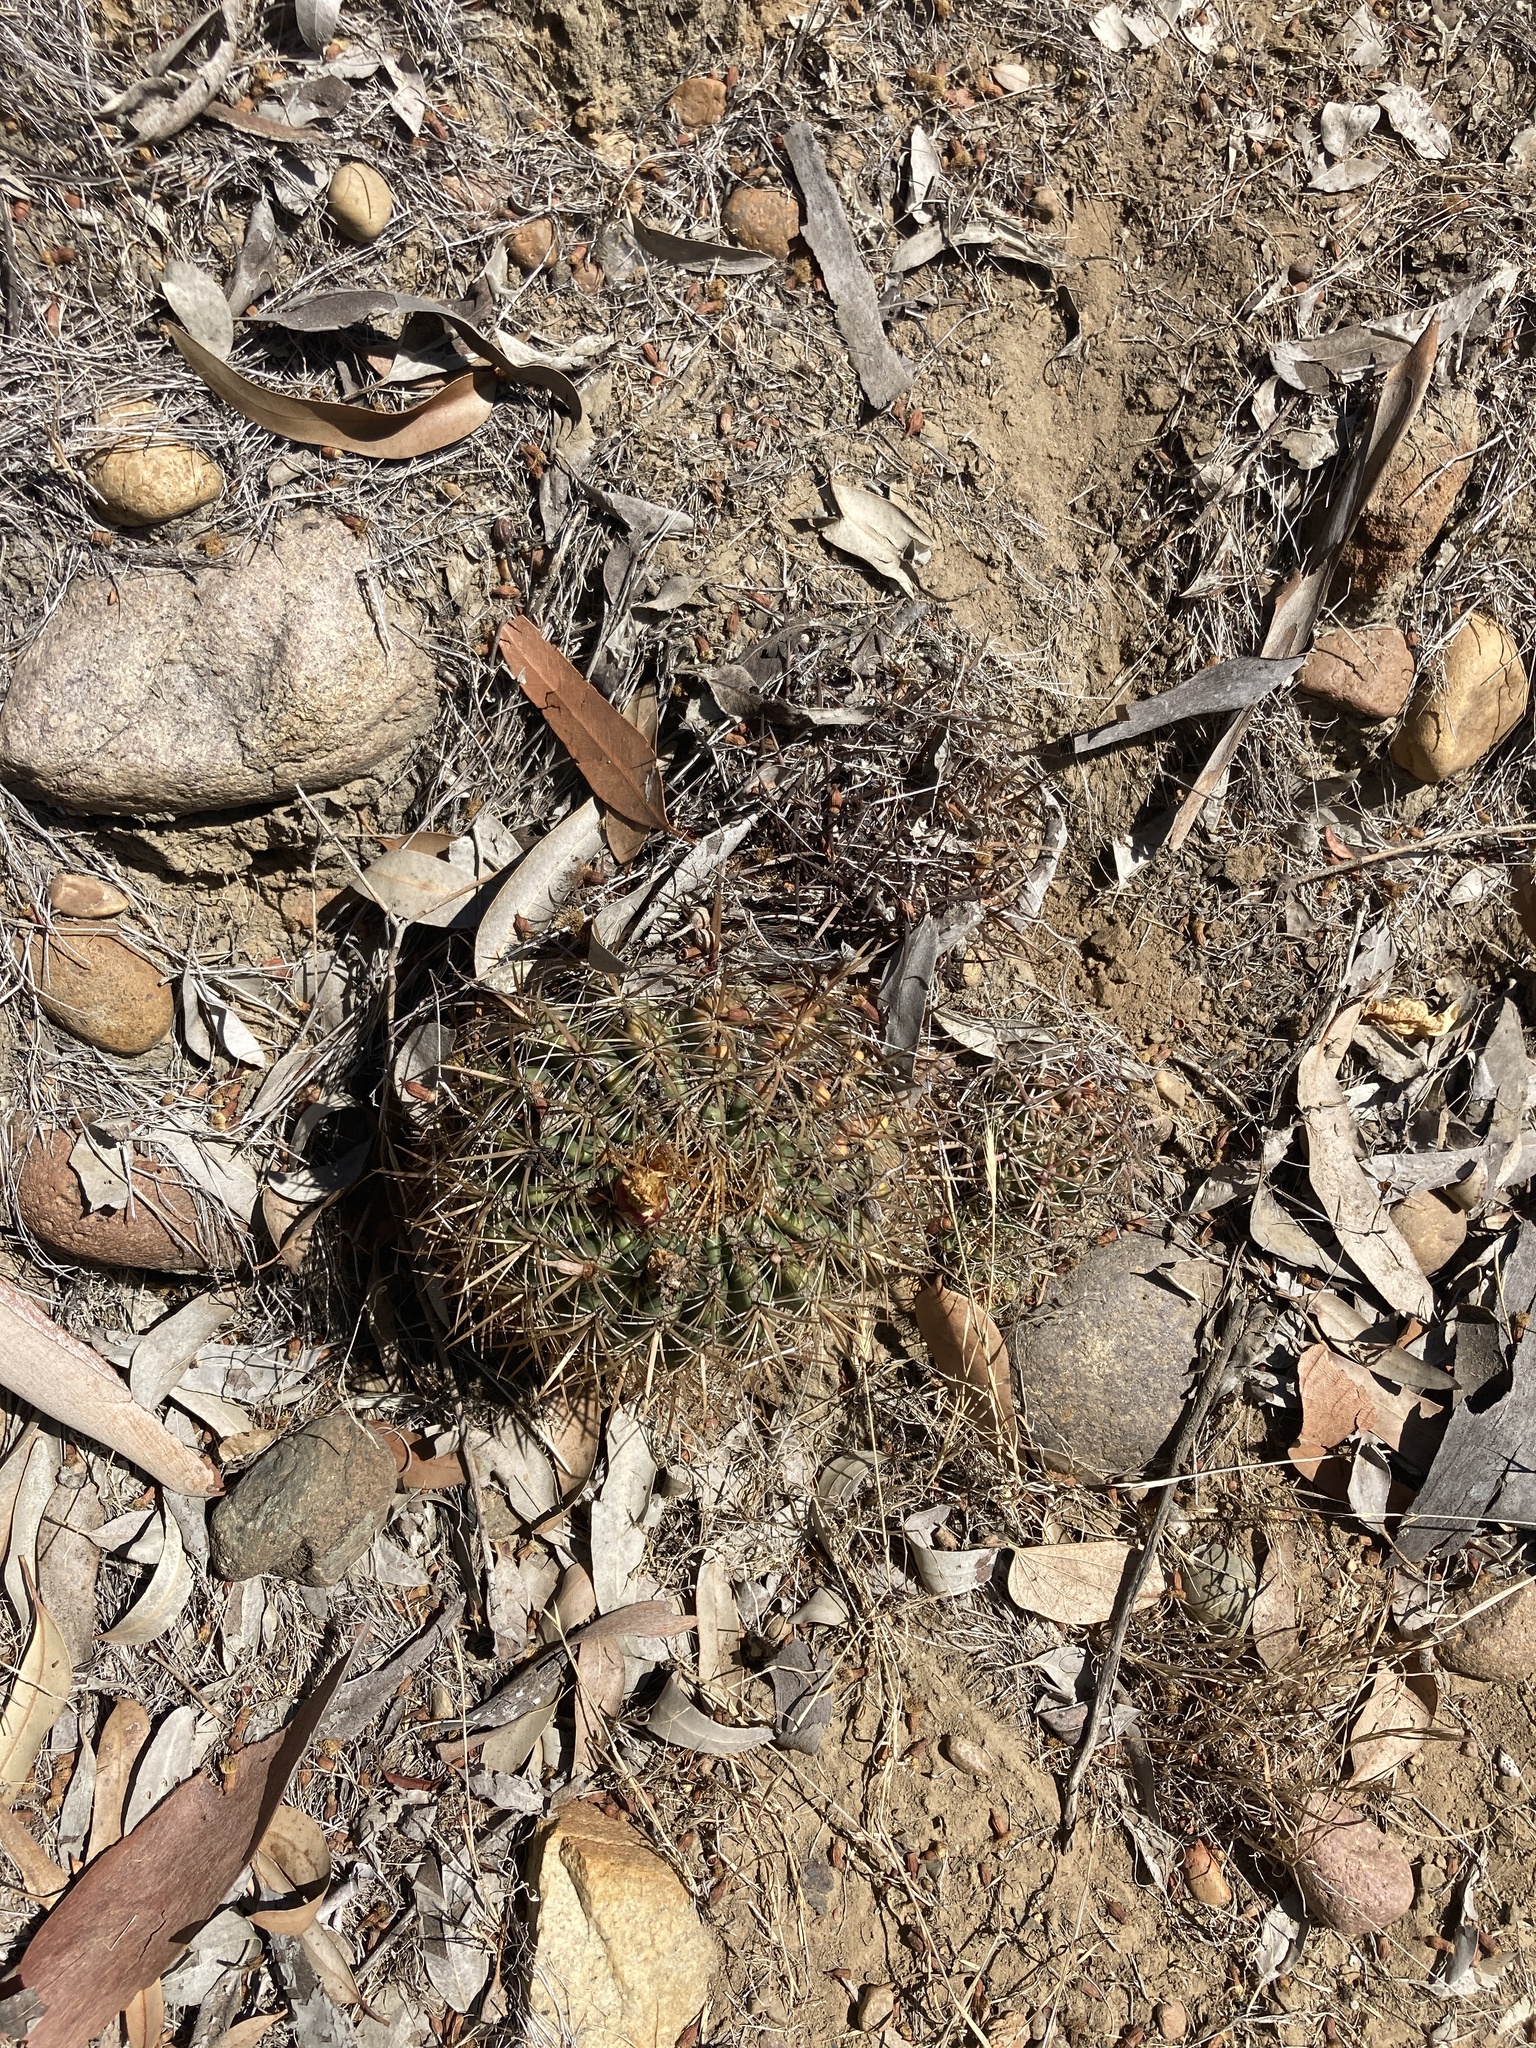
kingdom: Plantae
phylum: Tracheophyta
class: Magnoliopsida
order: Caryophyllales
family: Cactaceae
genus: Ferocactus
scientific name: Ferocactus viridescens
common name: San diego barrel cactus
